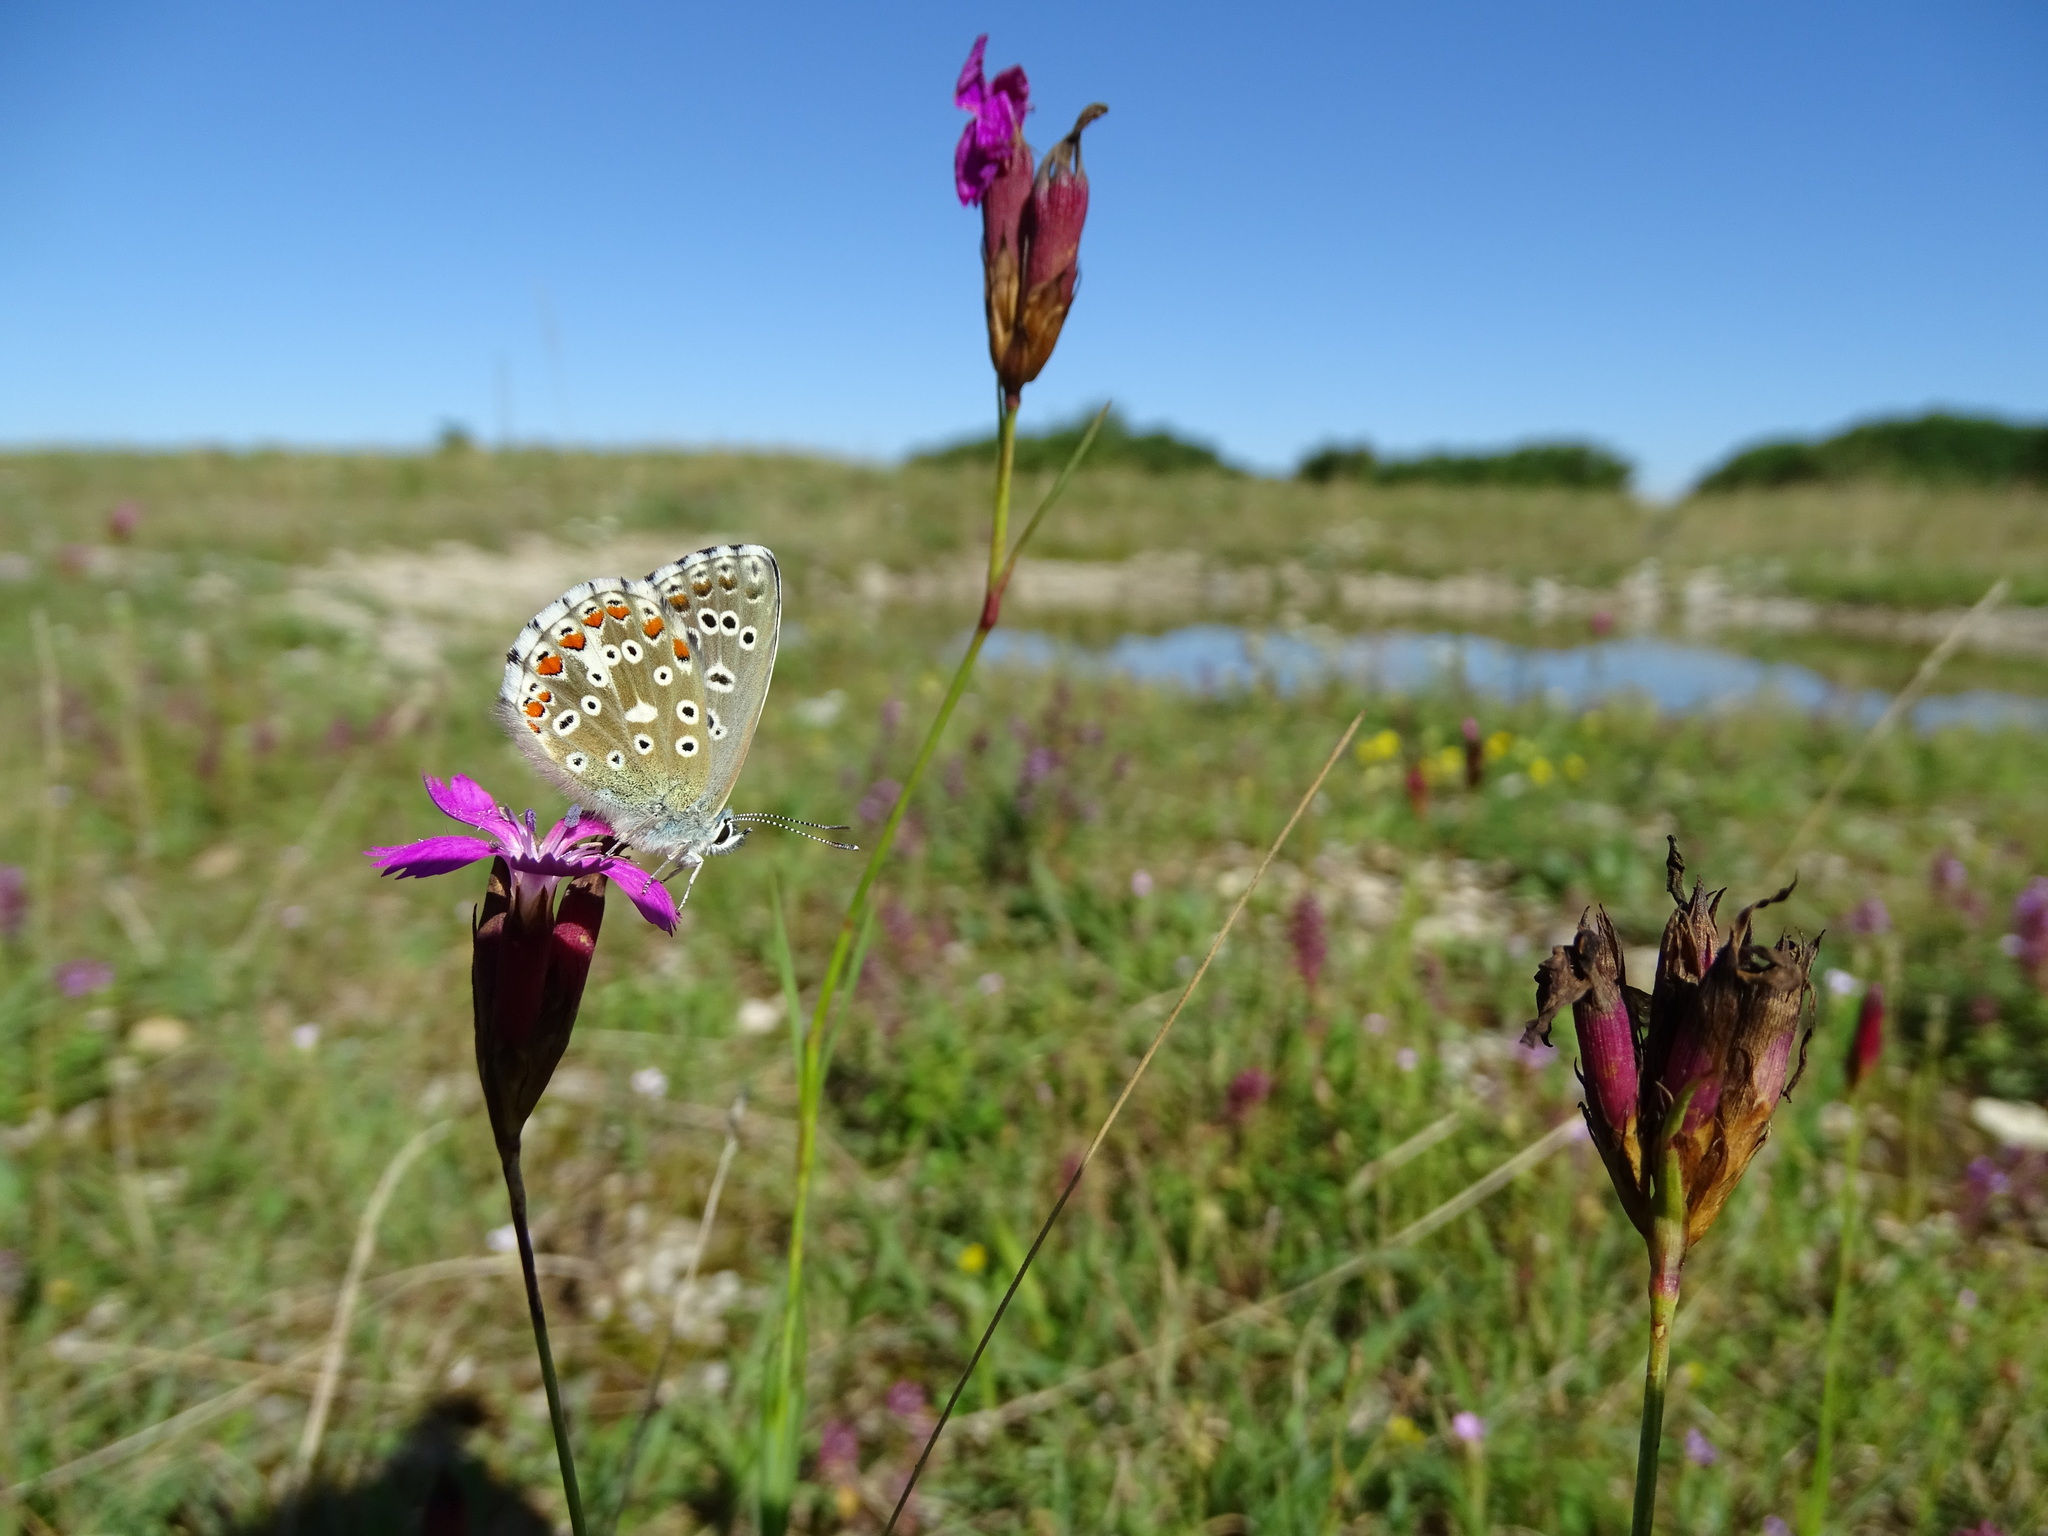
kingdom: Animalia
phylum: Arthropoda
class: Insecta
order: Lepidoptera
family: Lycaenidae
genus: Lysandra
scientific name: Lysandra bellargus
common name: Adonis blue
